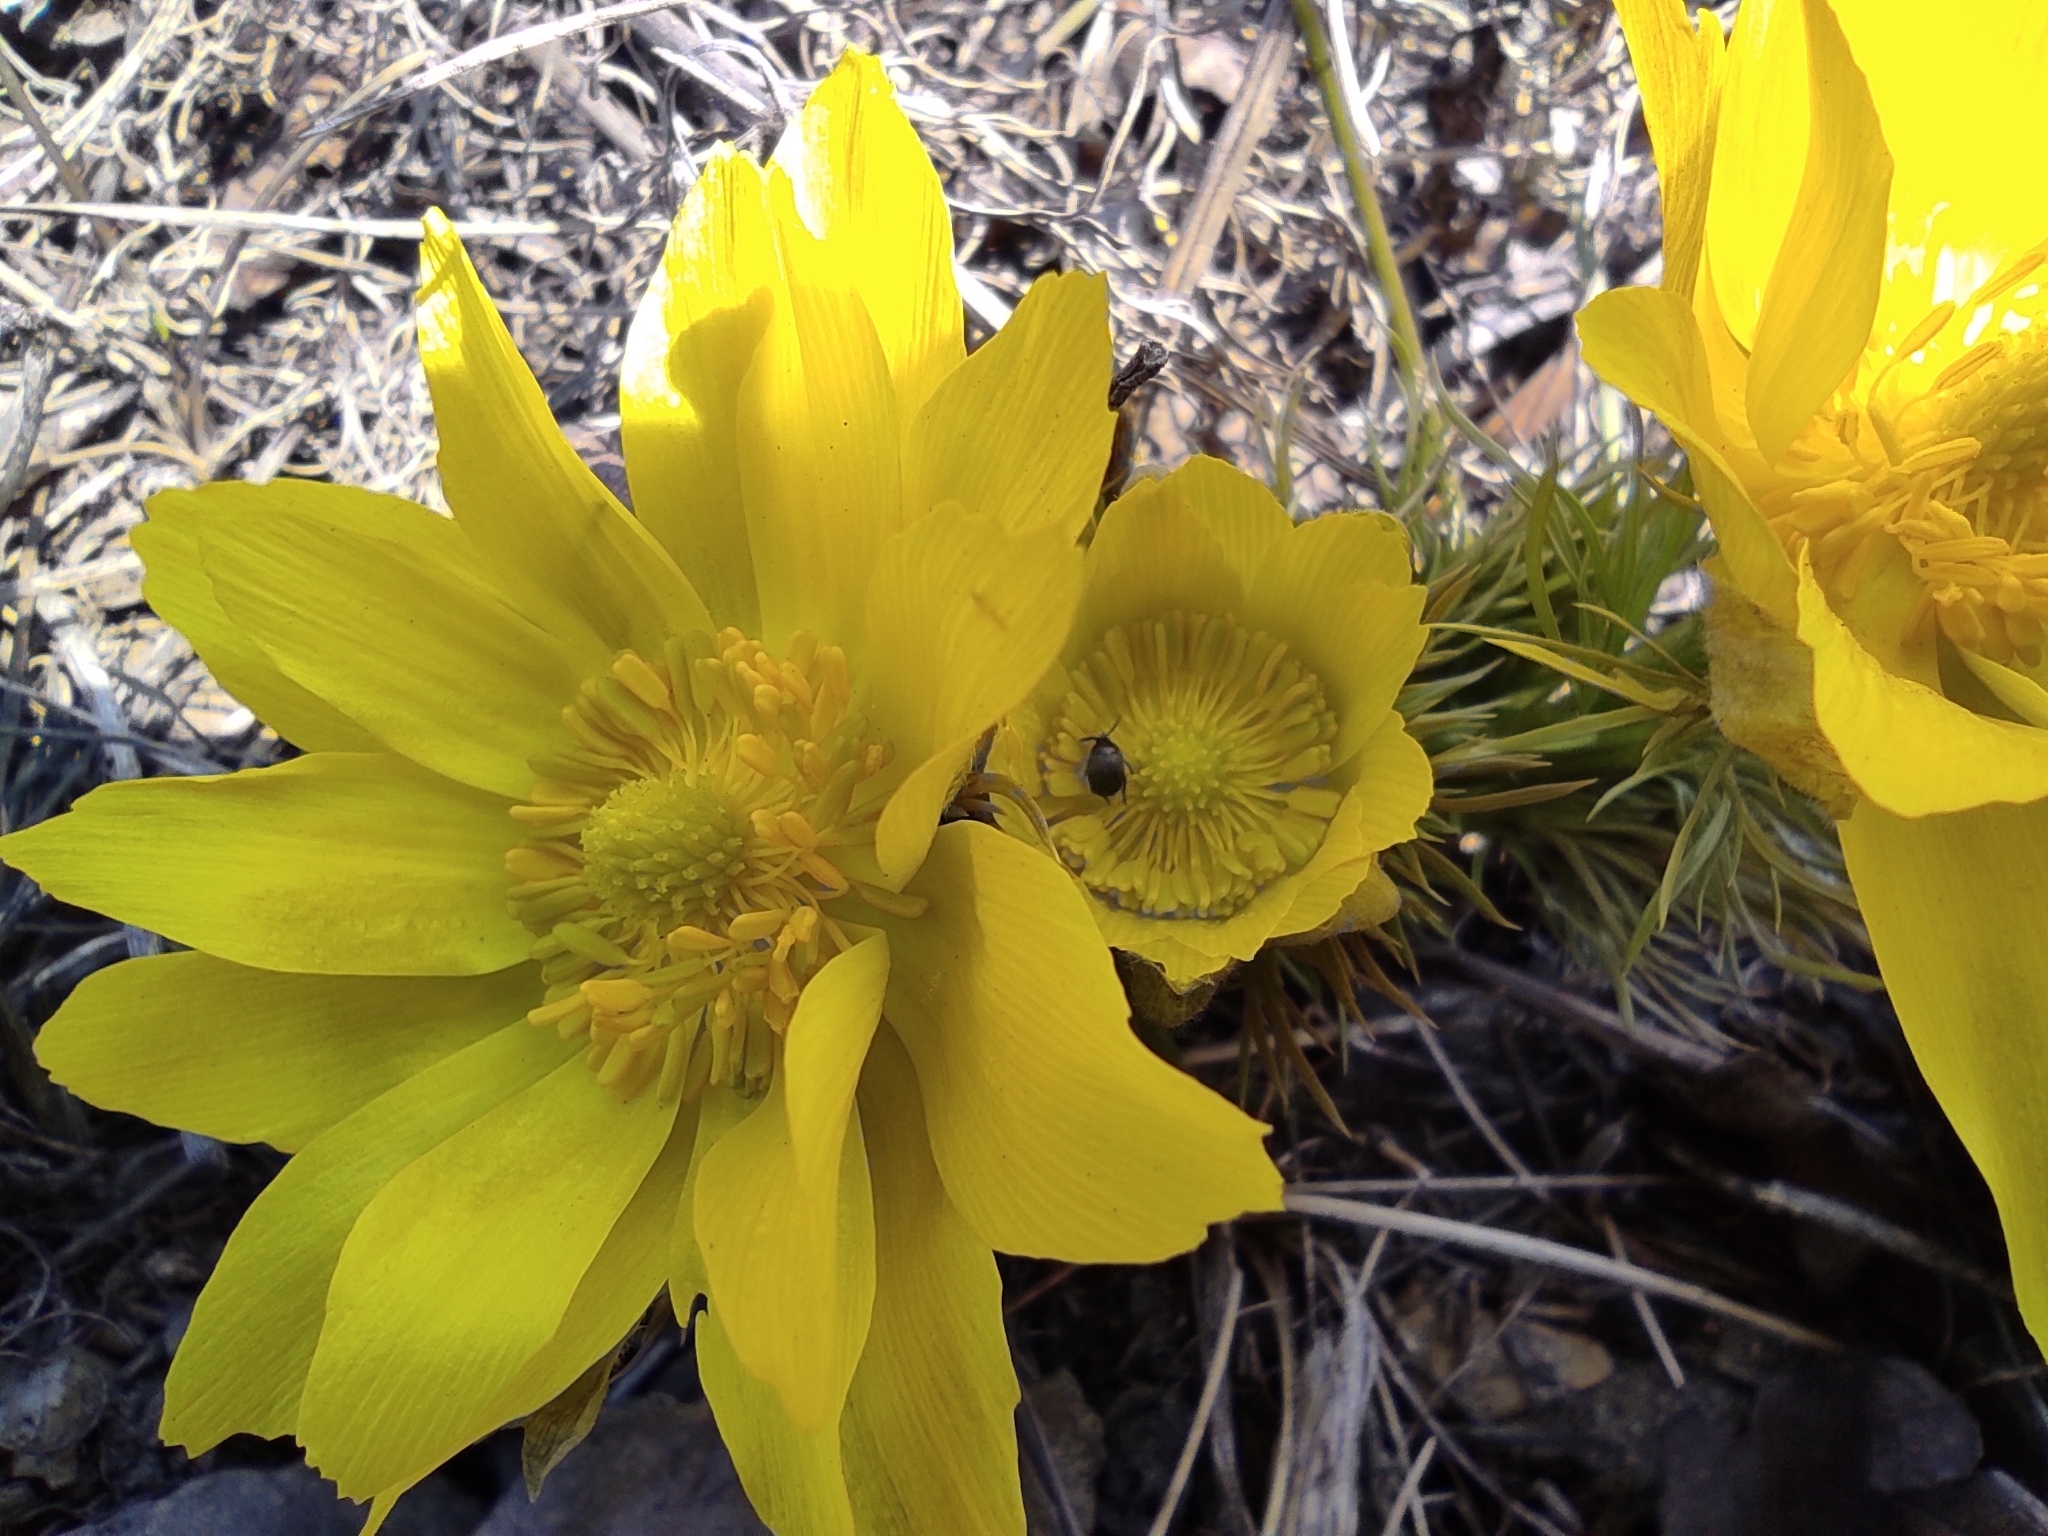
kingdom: Plantae
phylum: Tracheophyta
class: Magnoliopsida
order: Ranunculales
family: Ranunculaceae
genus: Adonis
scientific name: Adonis vernalis
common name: Yellow pheasants-eye
